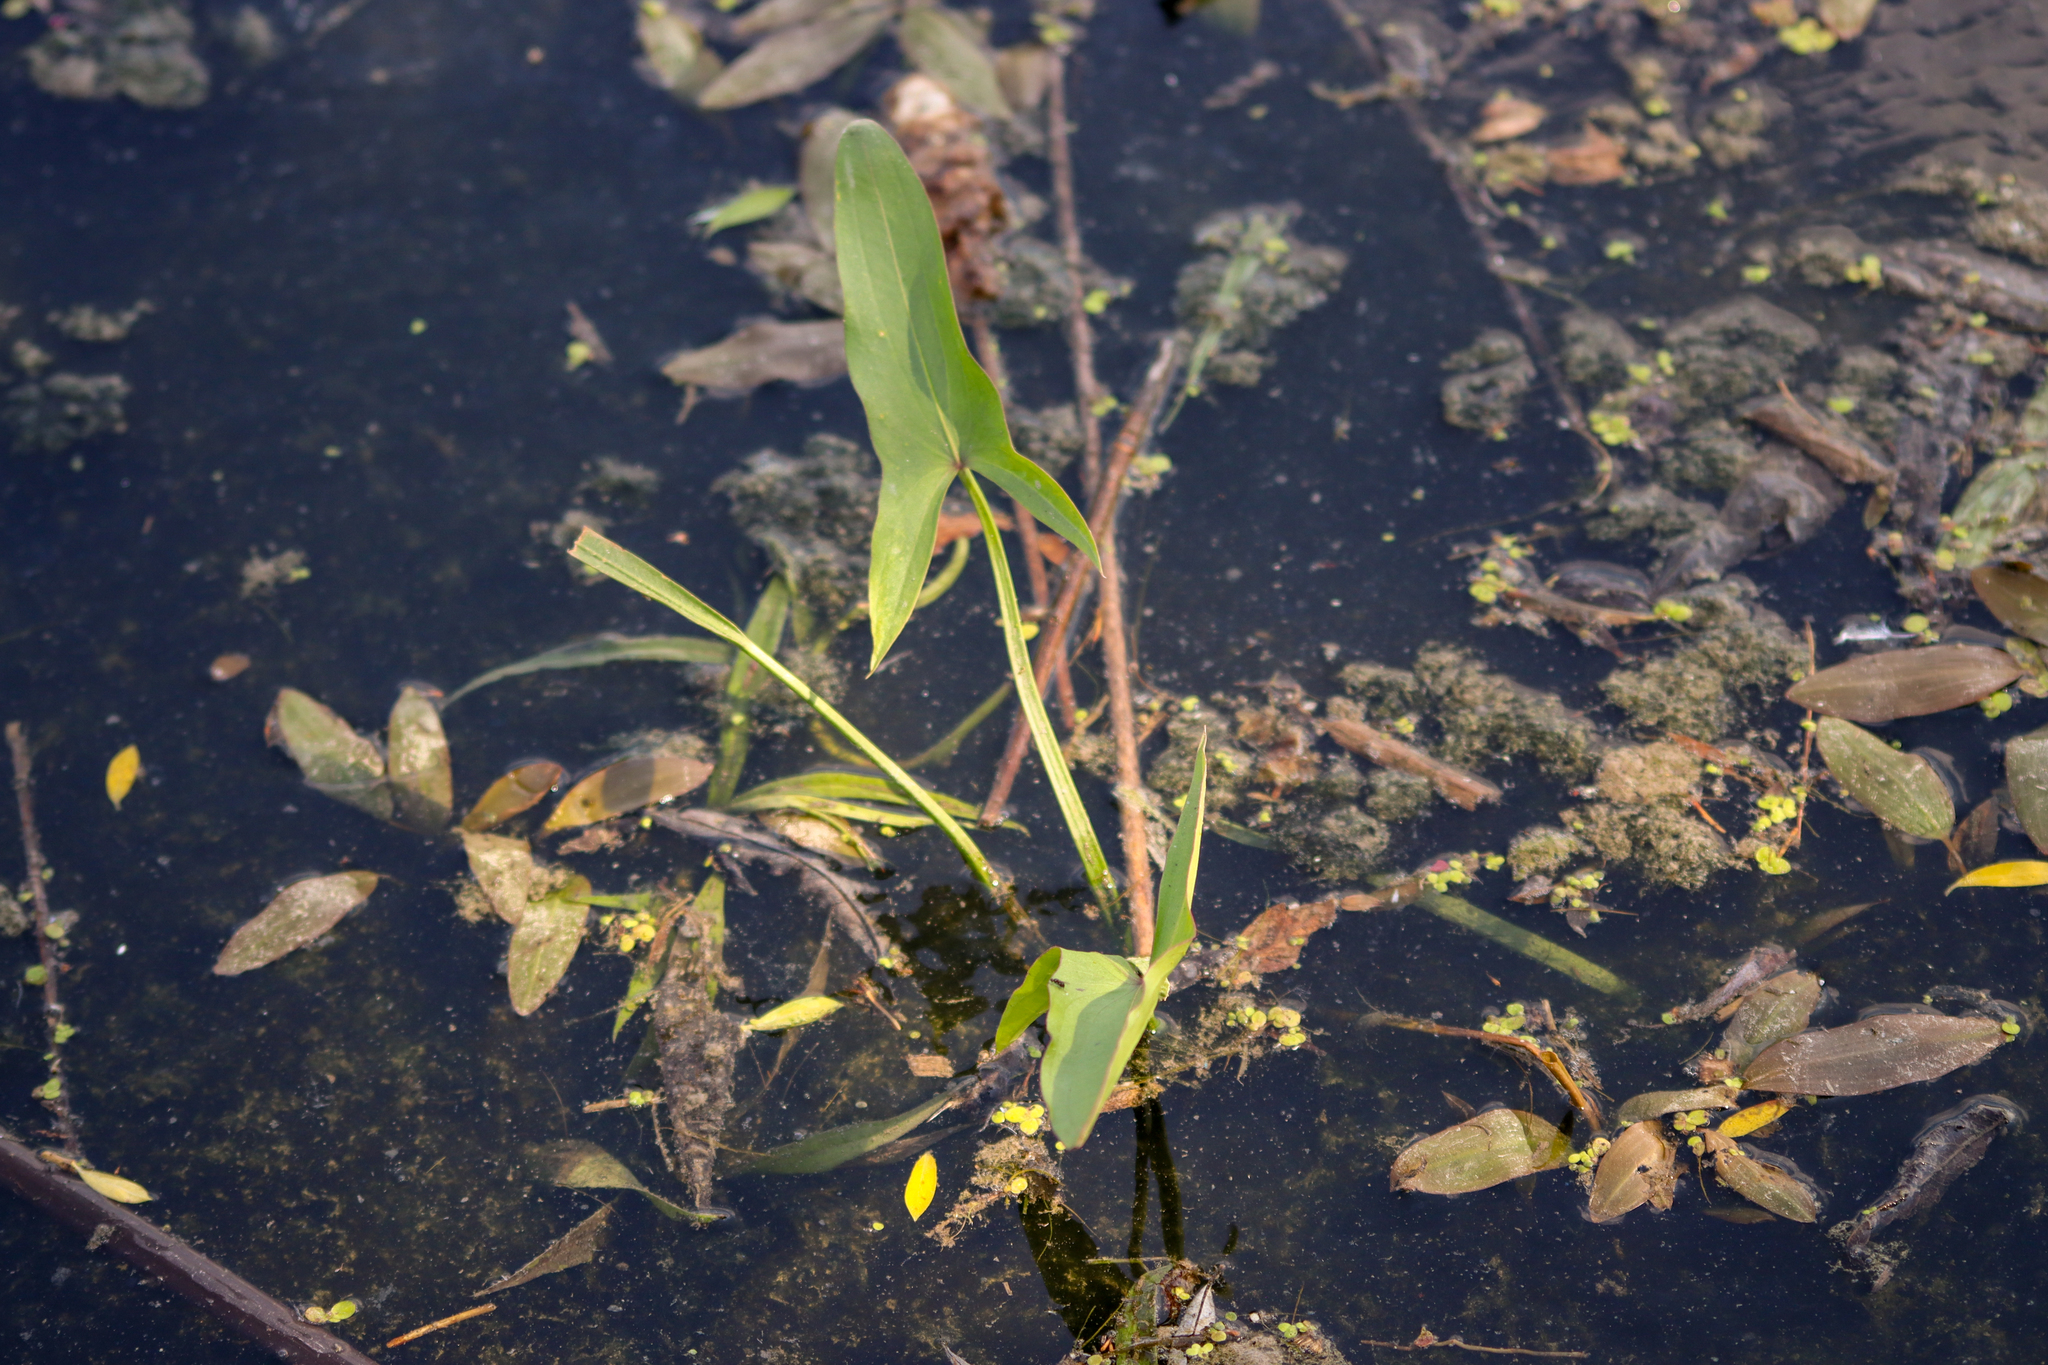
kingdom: Plantae
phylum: Tracheophyta
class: Liliopsida
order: Alismatales
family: Alismataceae
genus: Sagittaria
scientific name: Sagittaria latifolia
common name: Duck-potato
